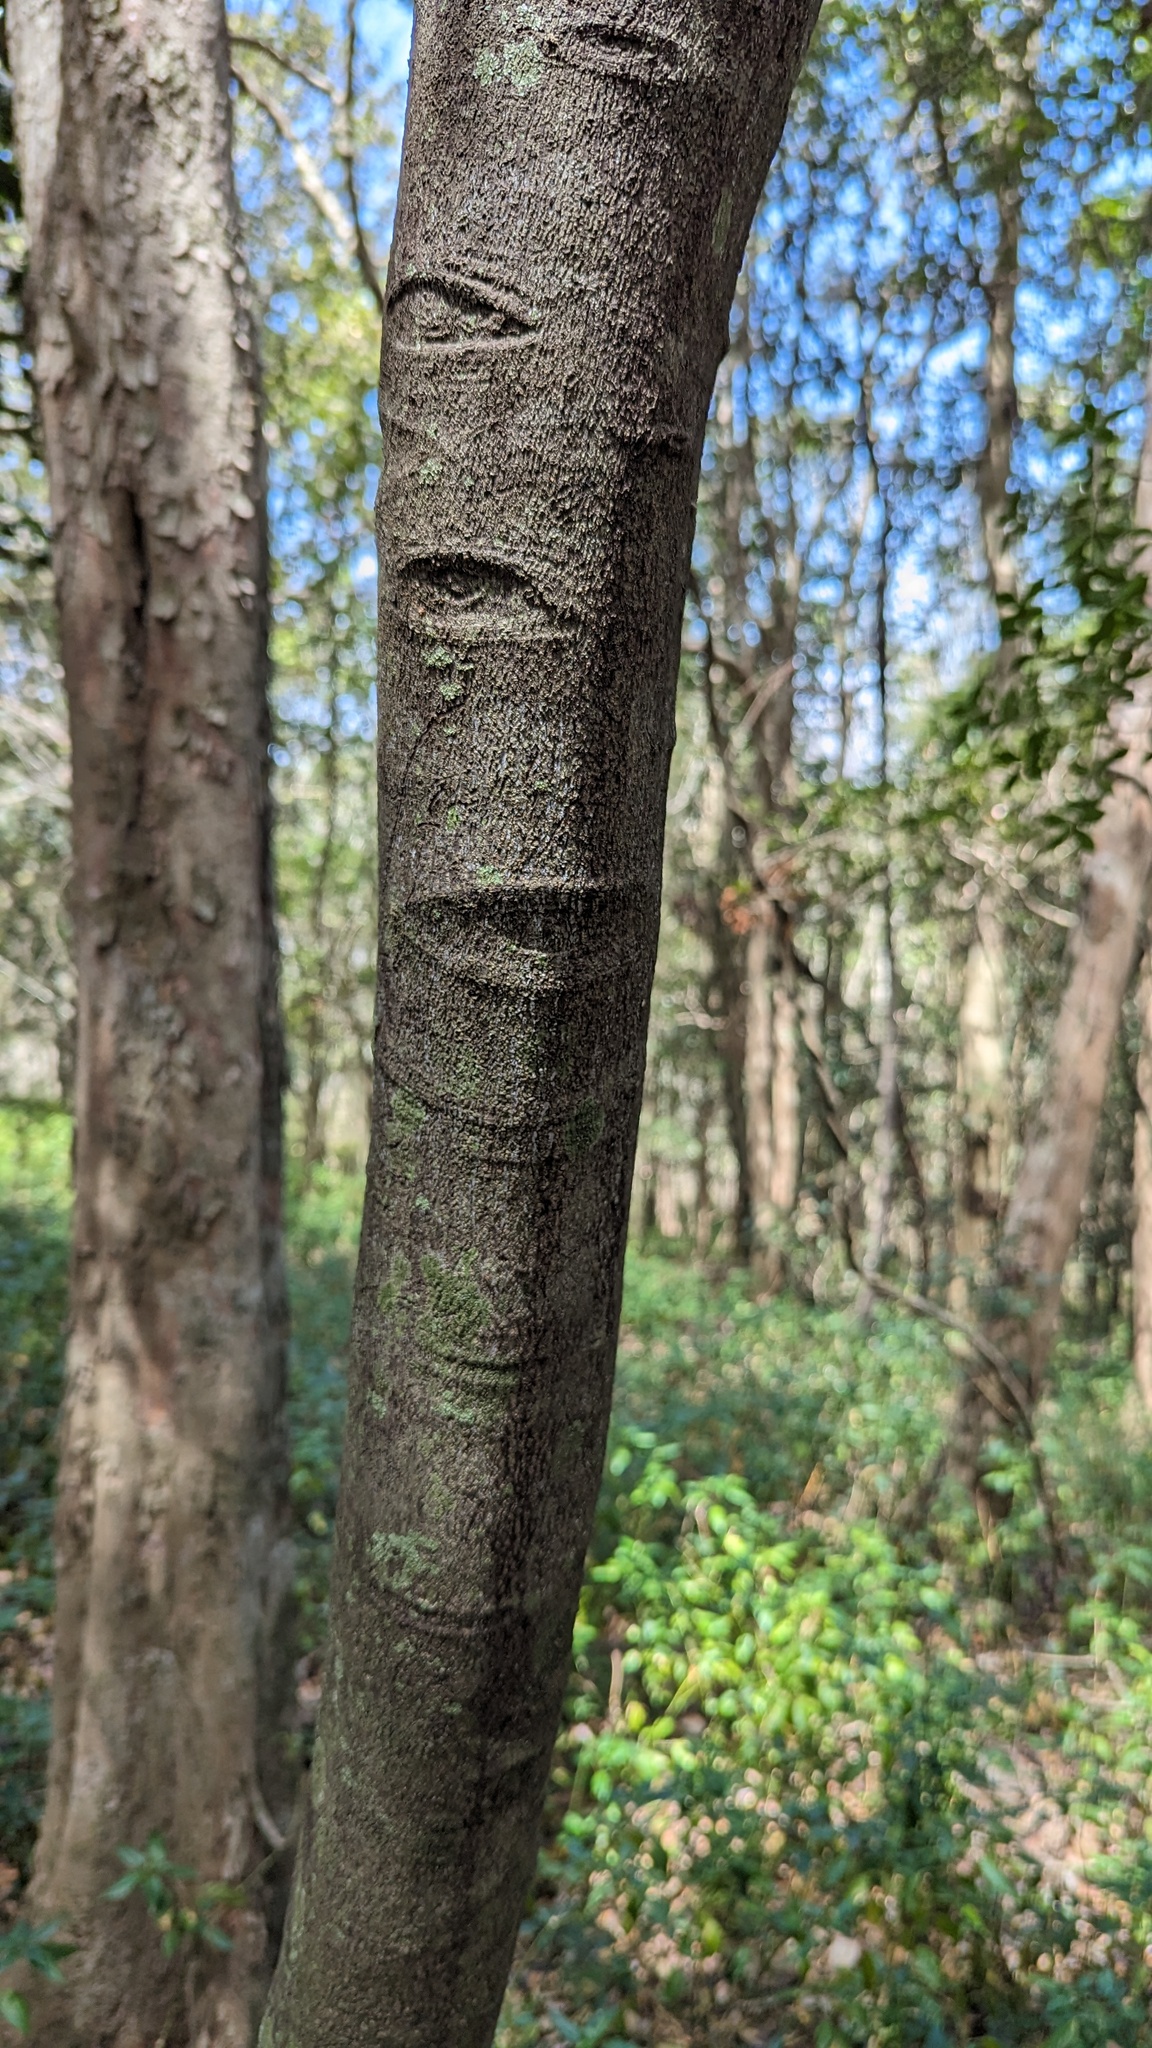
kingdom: Plantae
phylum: Tracheophyta
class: Magnoliopsida
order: Ericales
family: Ebenaceae
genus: Diospyros
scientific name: Diospyros australis
